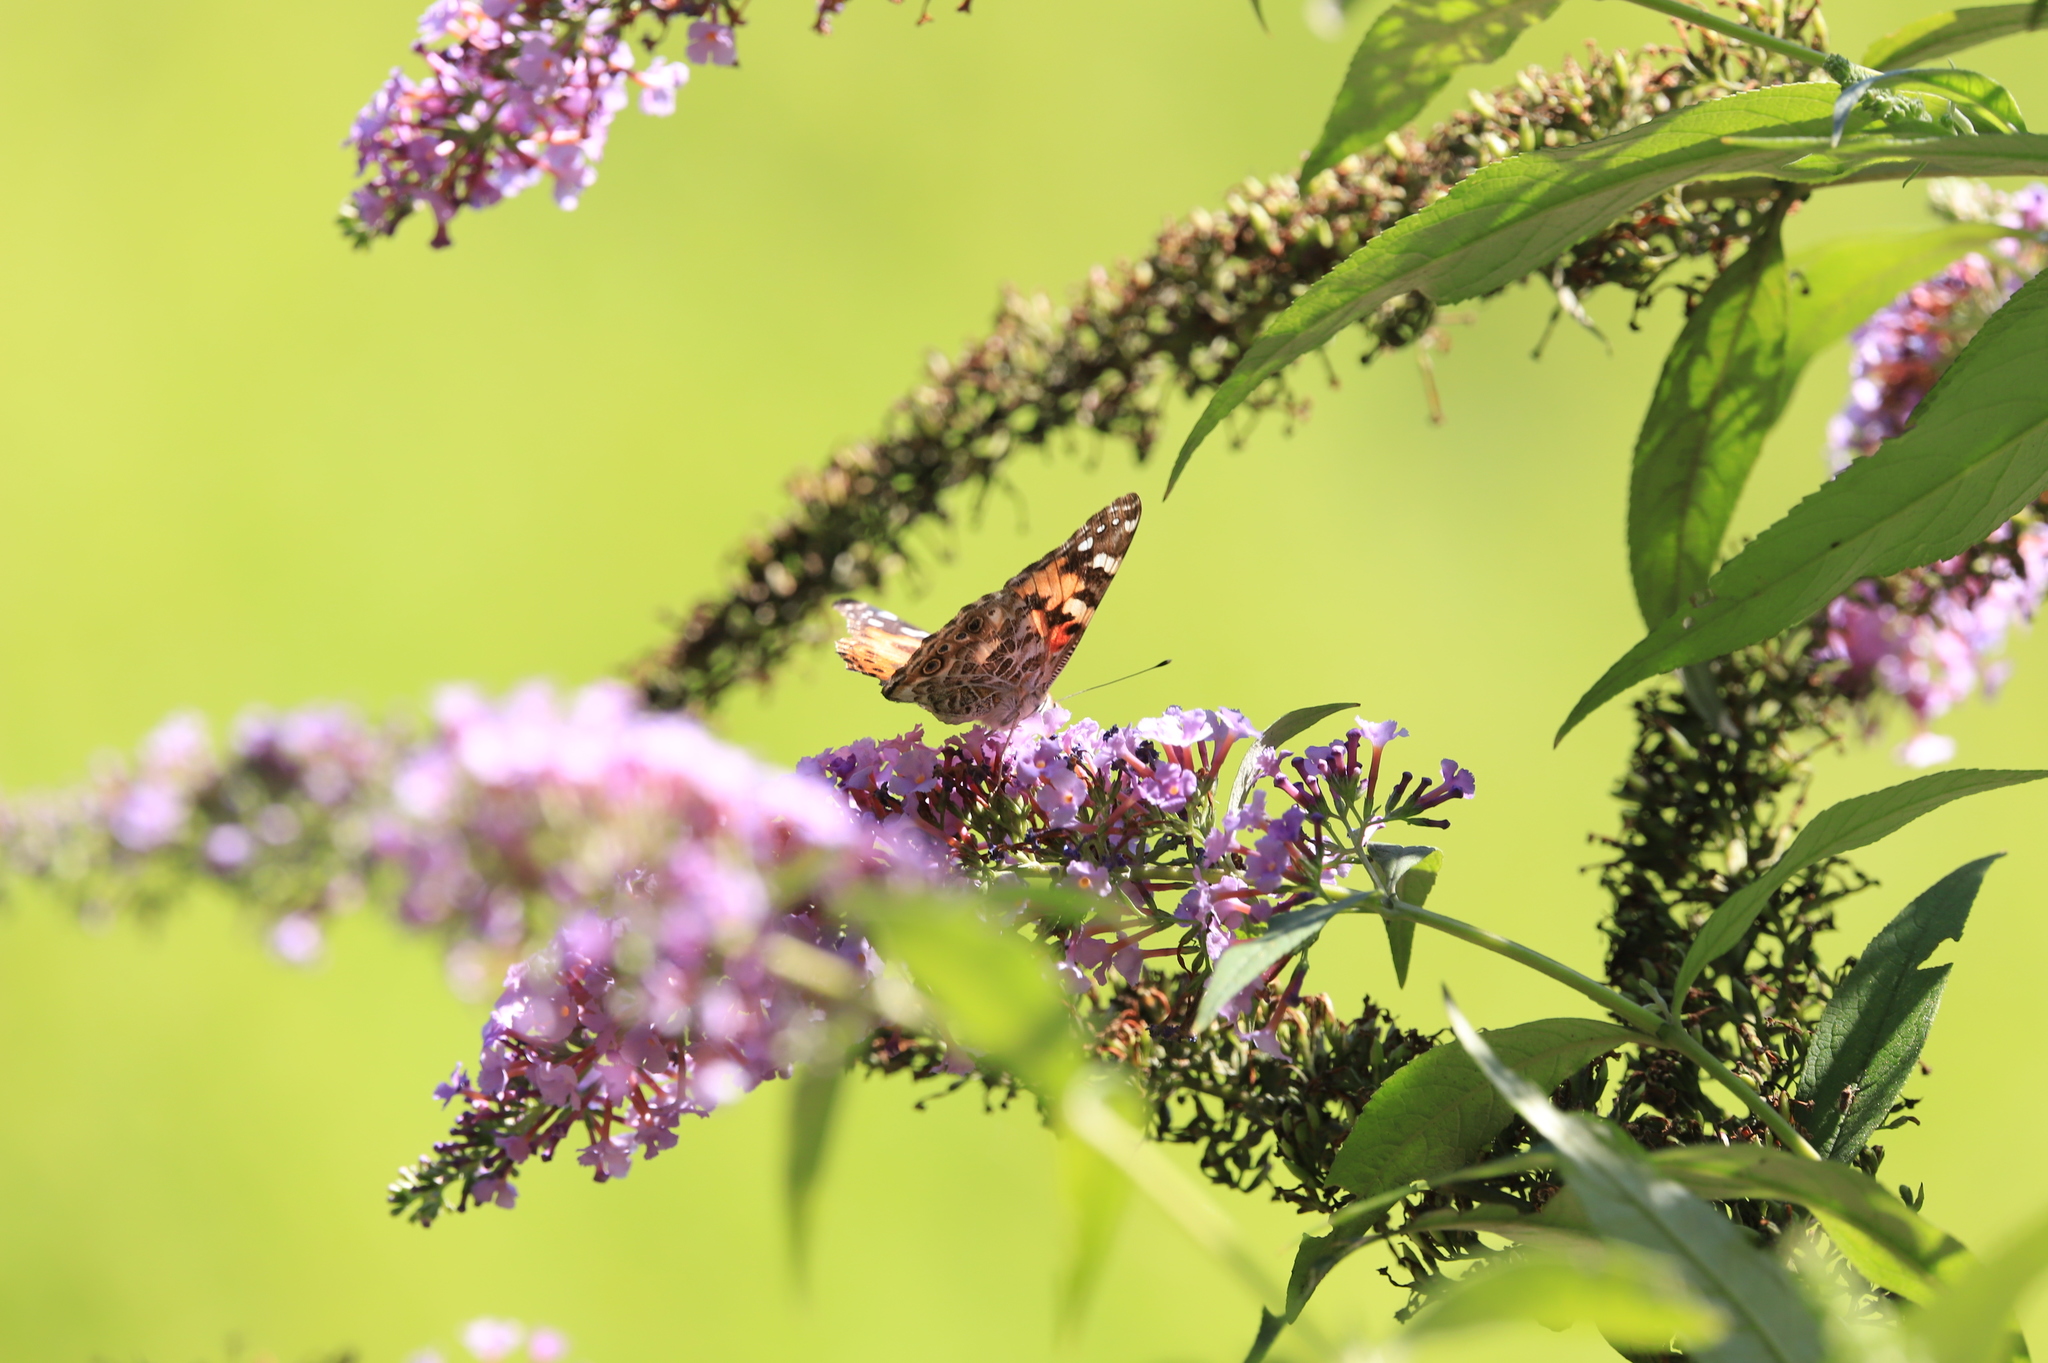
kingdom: Animalia
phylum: Arthropoda
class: Insecta
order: Lepidoptera
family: Nymphalidae
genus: Vanessa
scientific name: Vanessa virginiensis
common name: American lady
